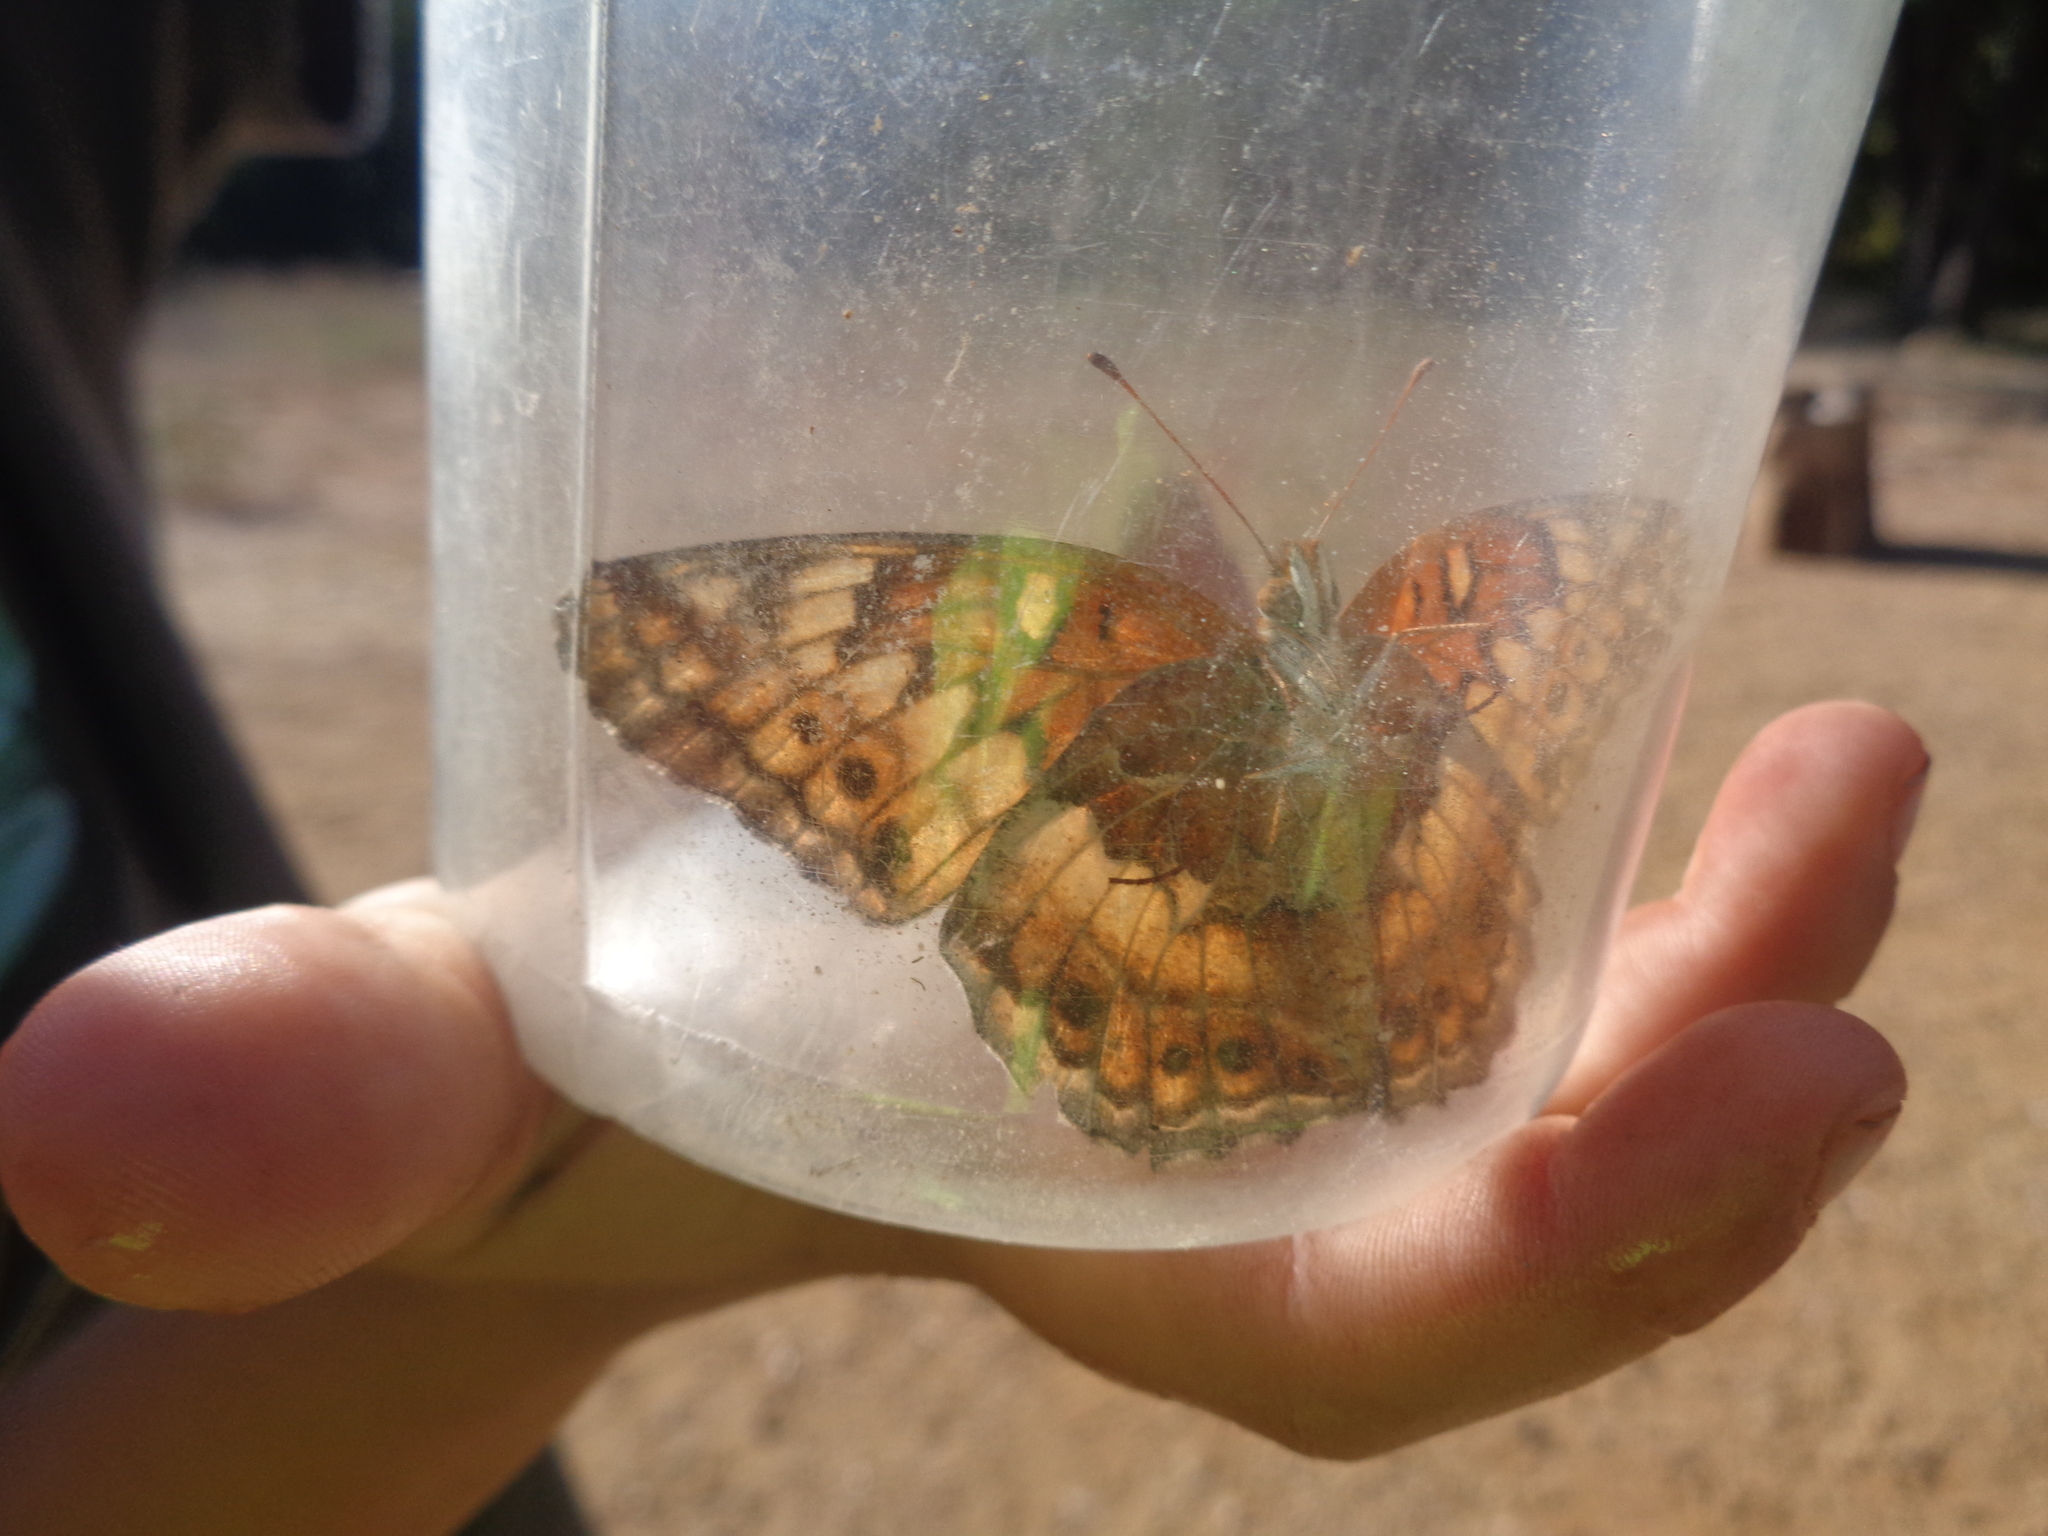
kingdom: Animalia
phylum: Arthropoda
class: Insecta
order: Lepidoptera
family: Nymphalidae
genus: Euptoieta
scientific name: Euptoieta claudia
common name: Variegated fritillary
